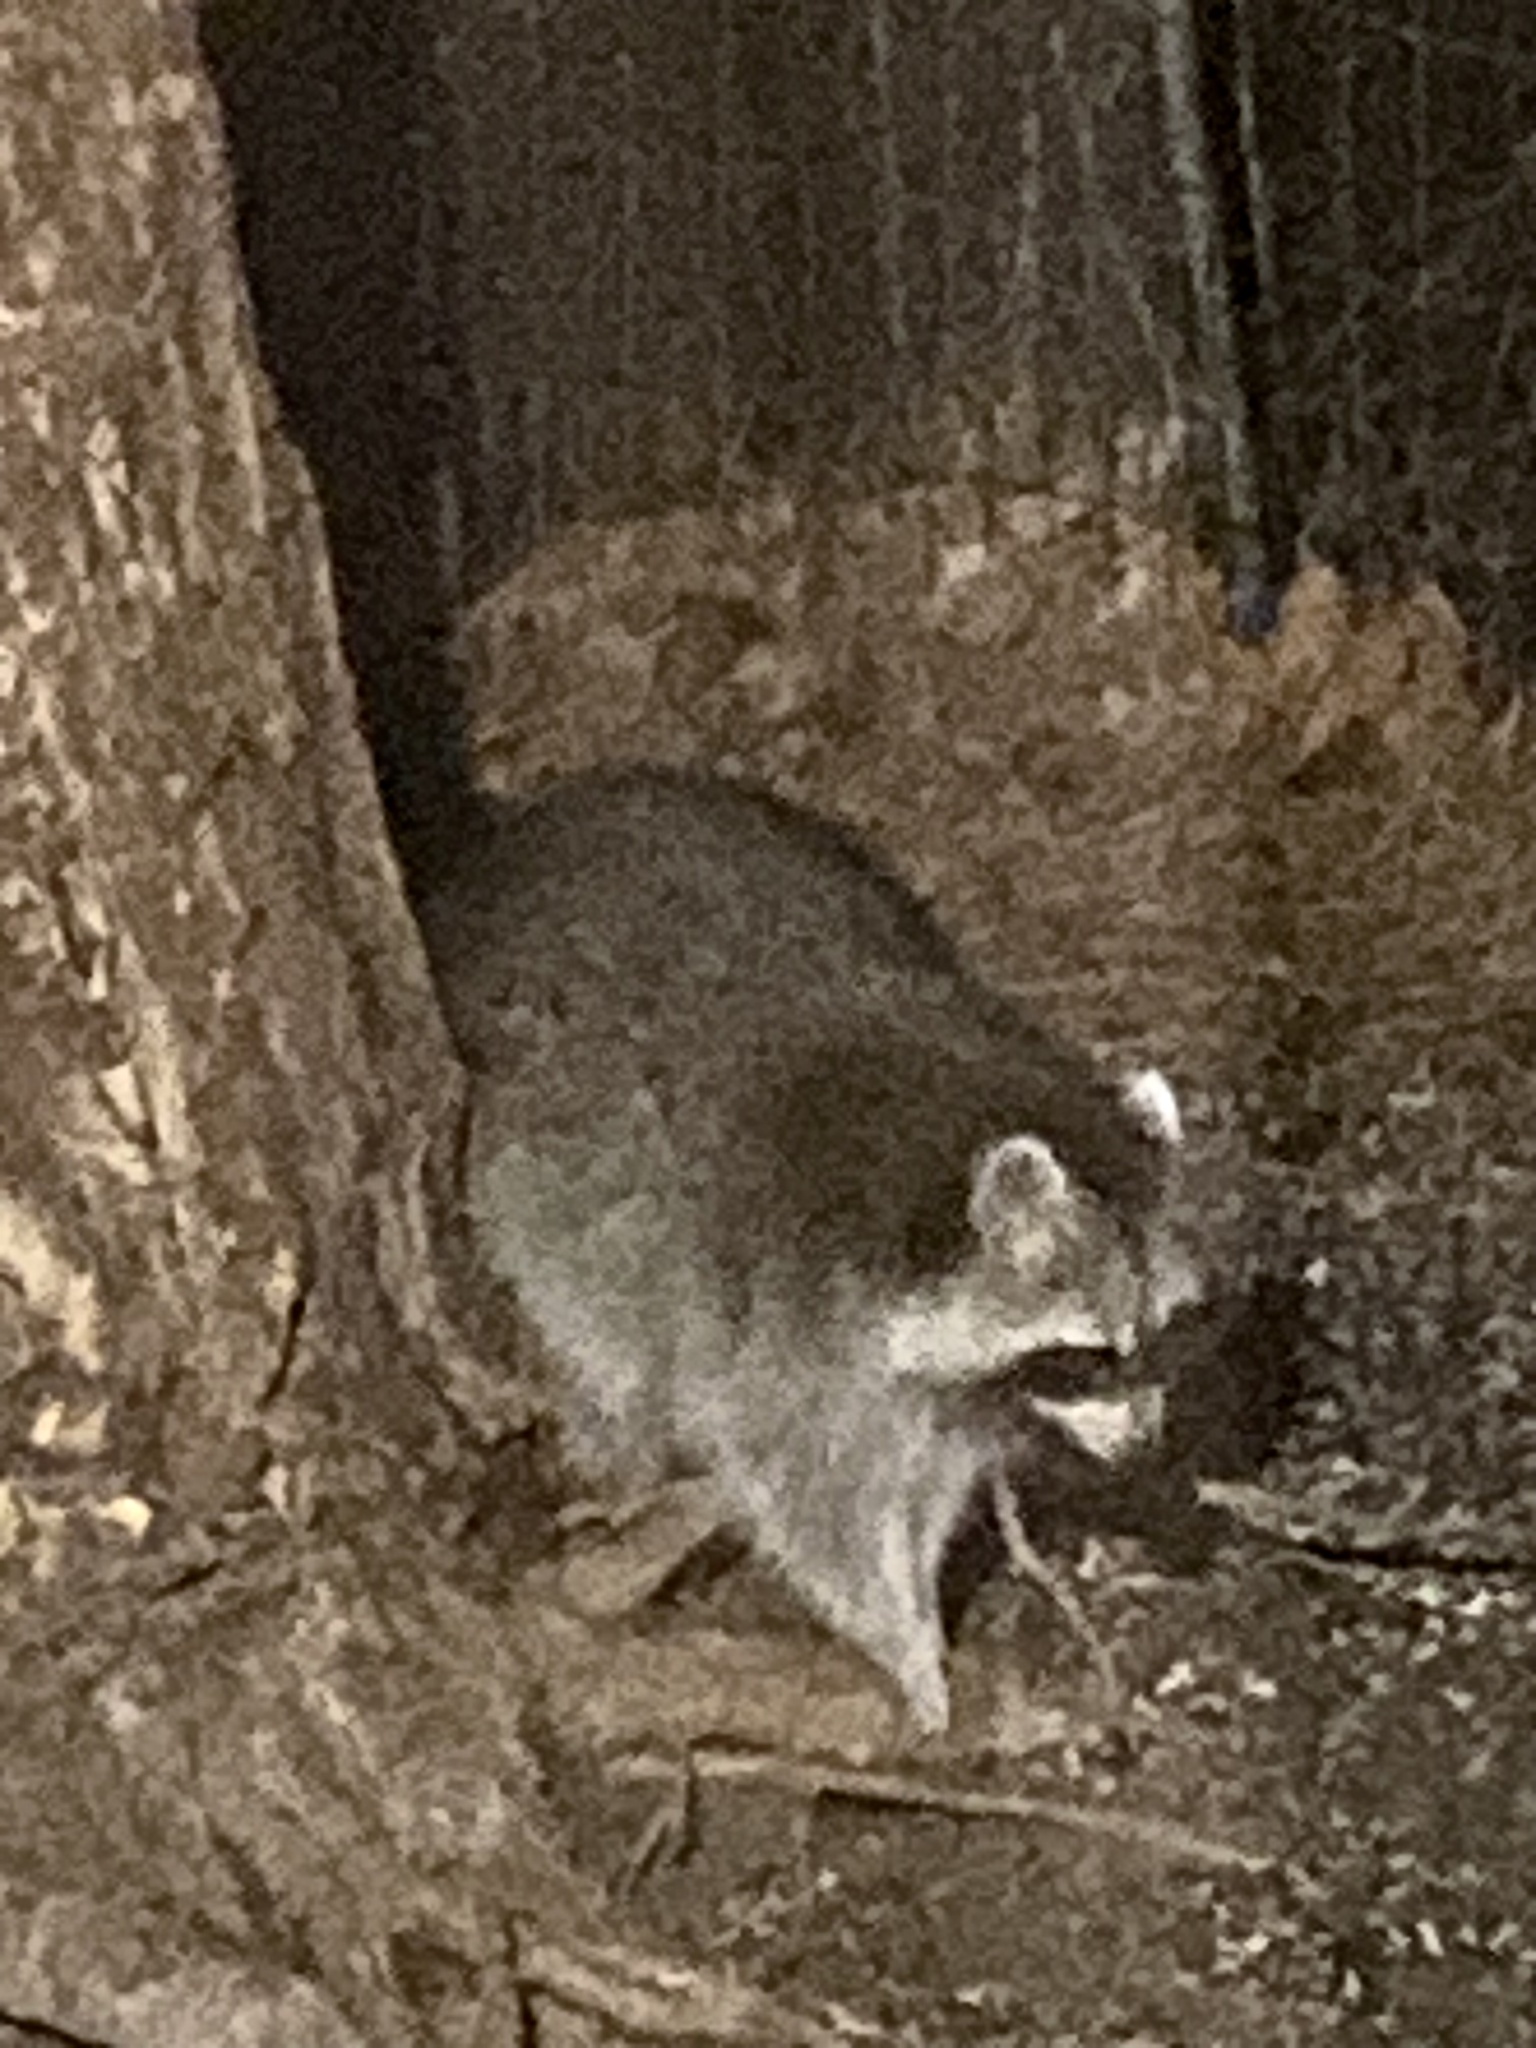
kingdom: Animalia
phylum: Chordata
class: Mammalia
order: Carnivora
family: Procyonidae
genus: Procyon
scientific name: Procyon lotor
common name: Raccoon
